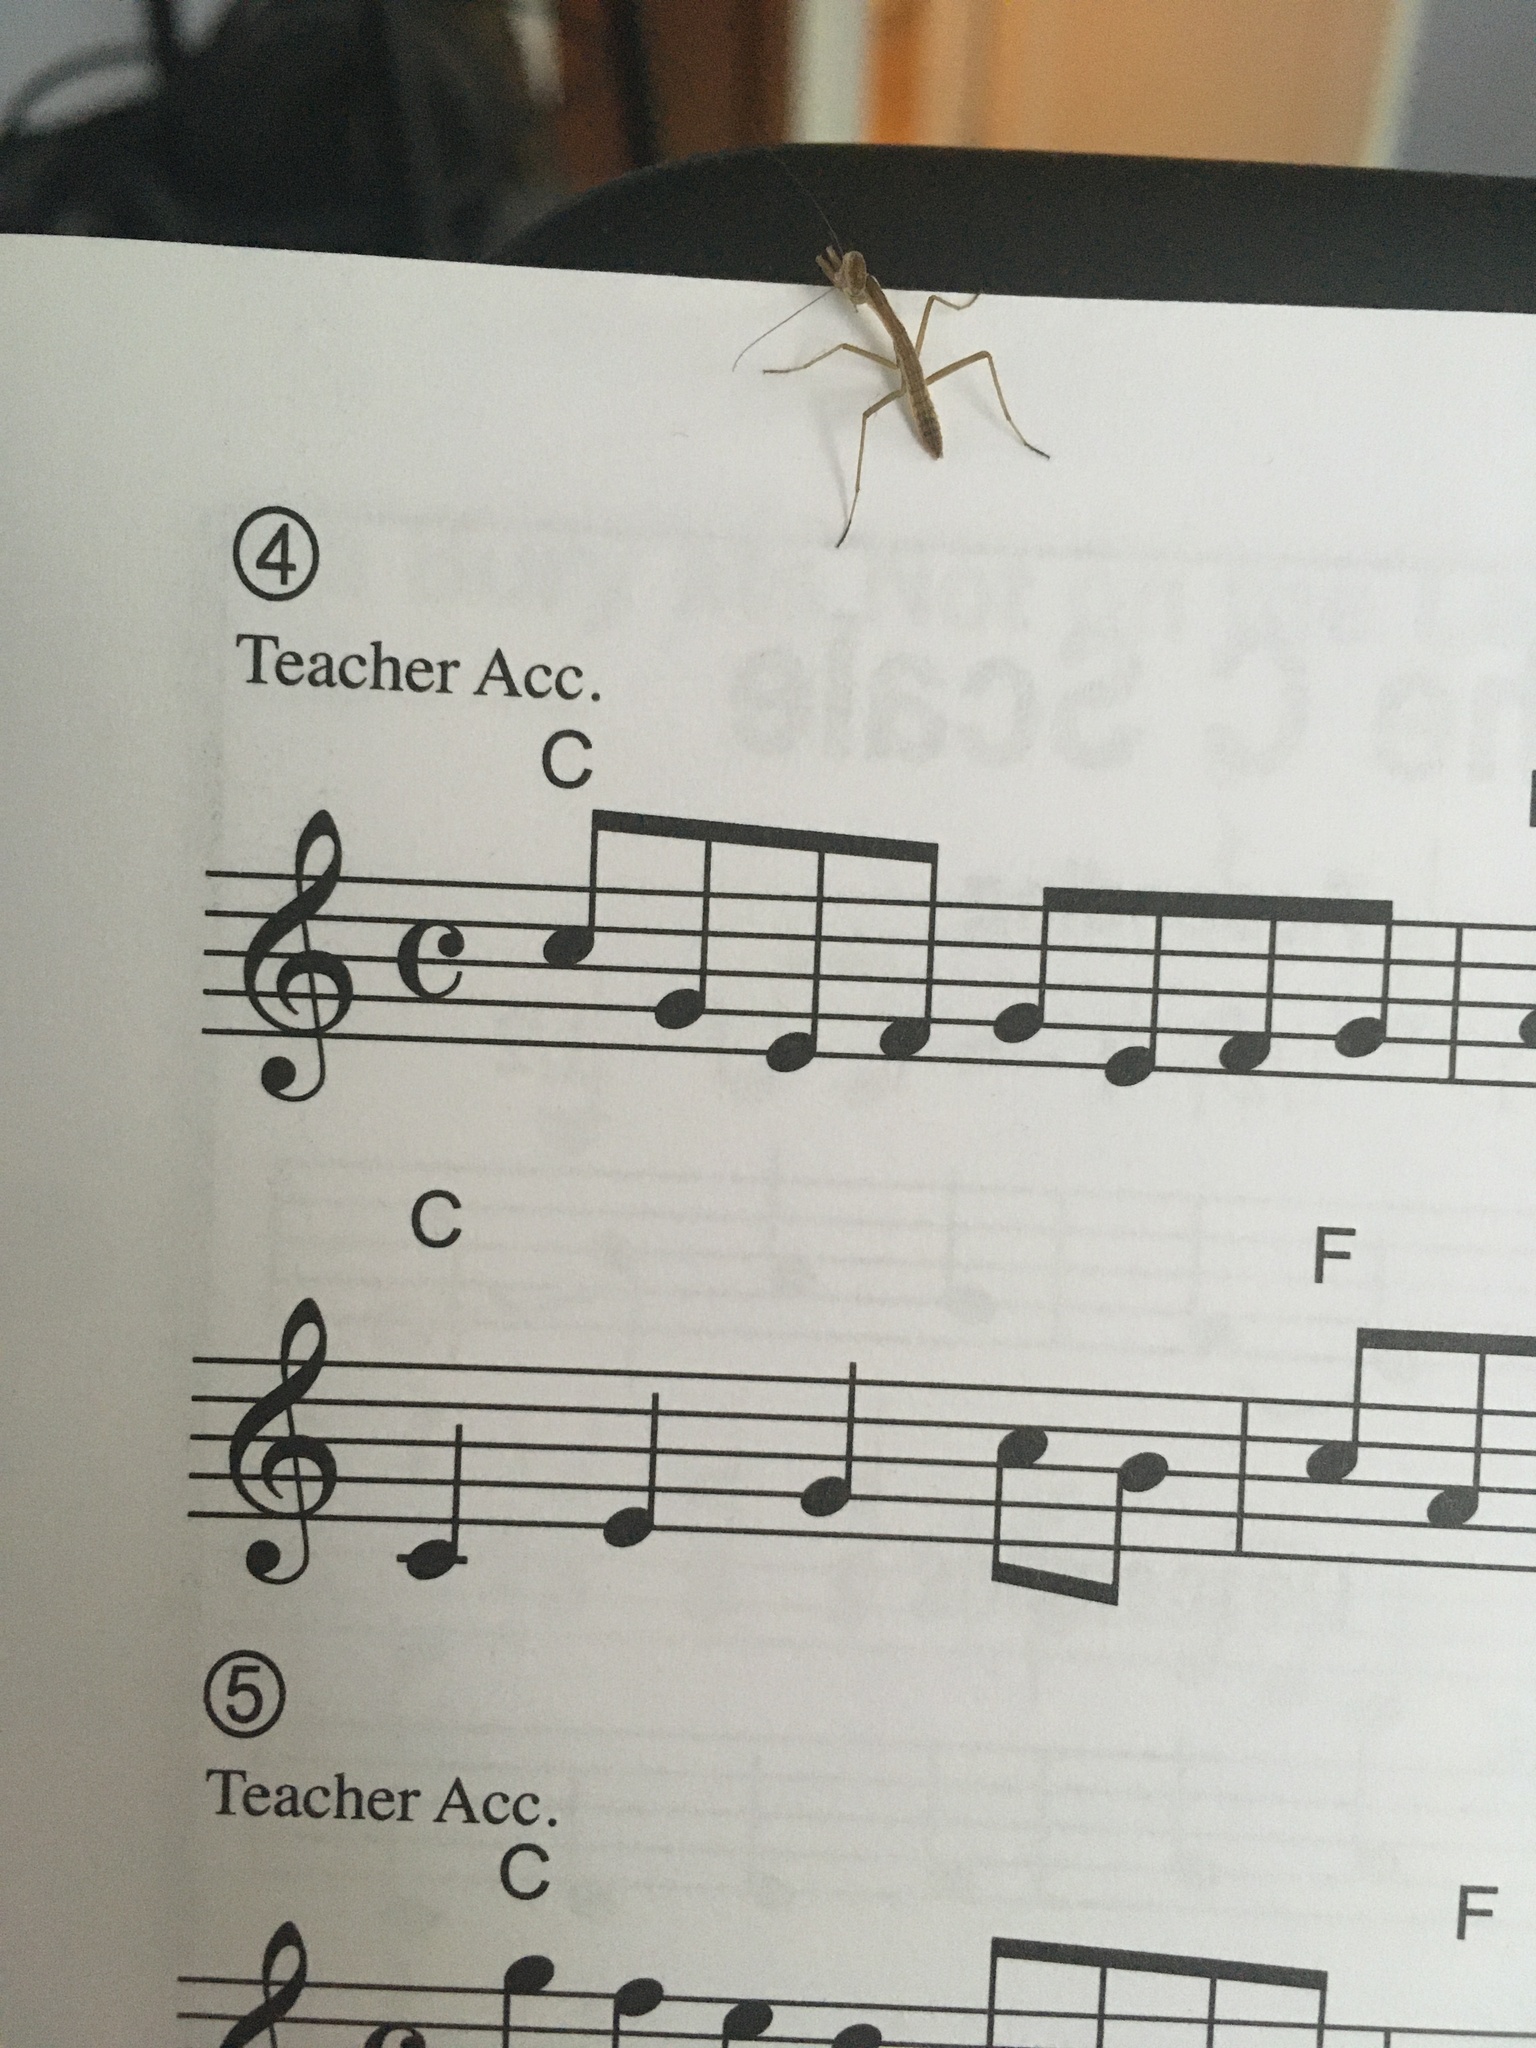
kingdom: Animalia
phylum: Arthropoda
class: Insecta
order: Mantodea
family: Mantidae
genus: Tenodera
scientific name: Tenodera sinensis
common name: Chinese mantis
